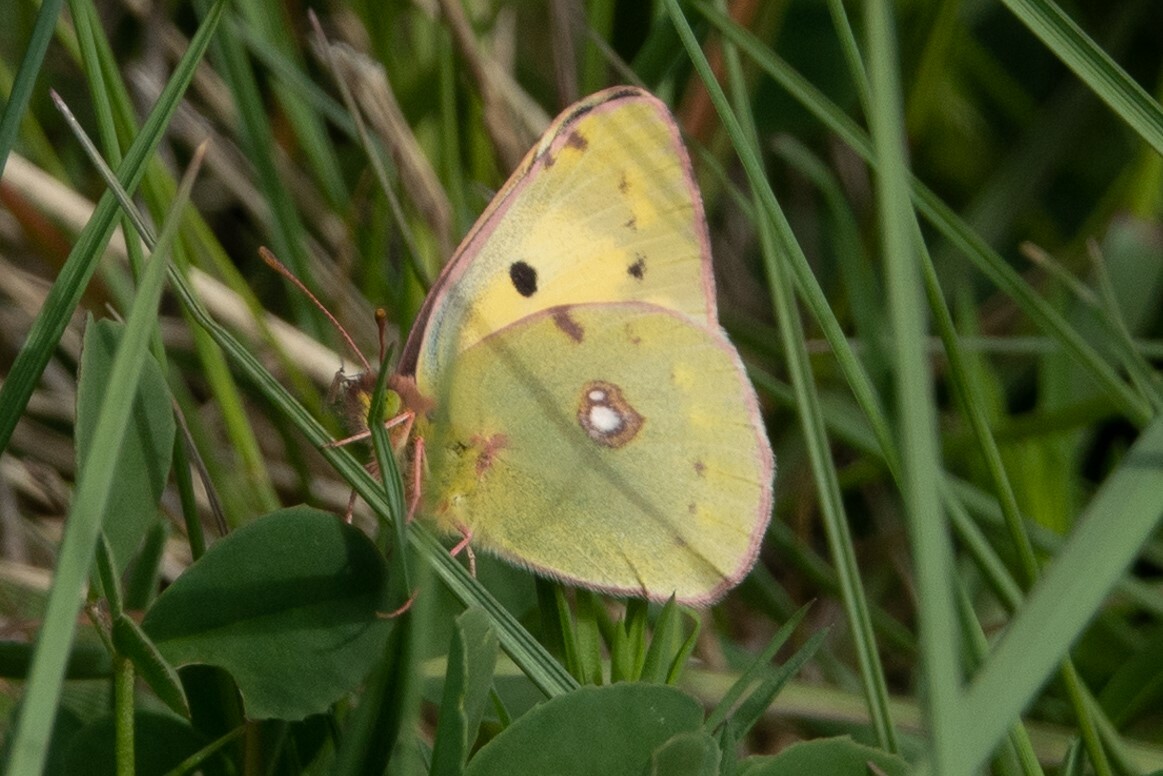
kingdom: Animalia
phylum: Arthropoda
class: Insecta
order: Lepidoptera
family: Pieridae
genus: Colias
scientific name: Colias croceus
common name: Clouded yellow
